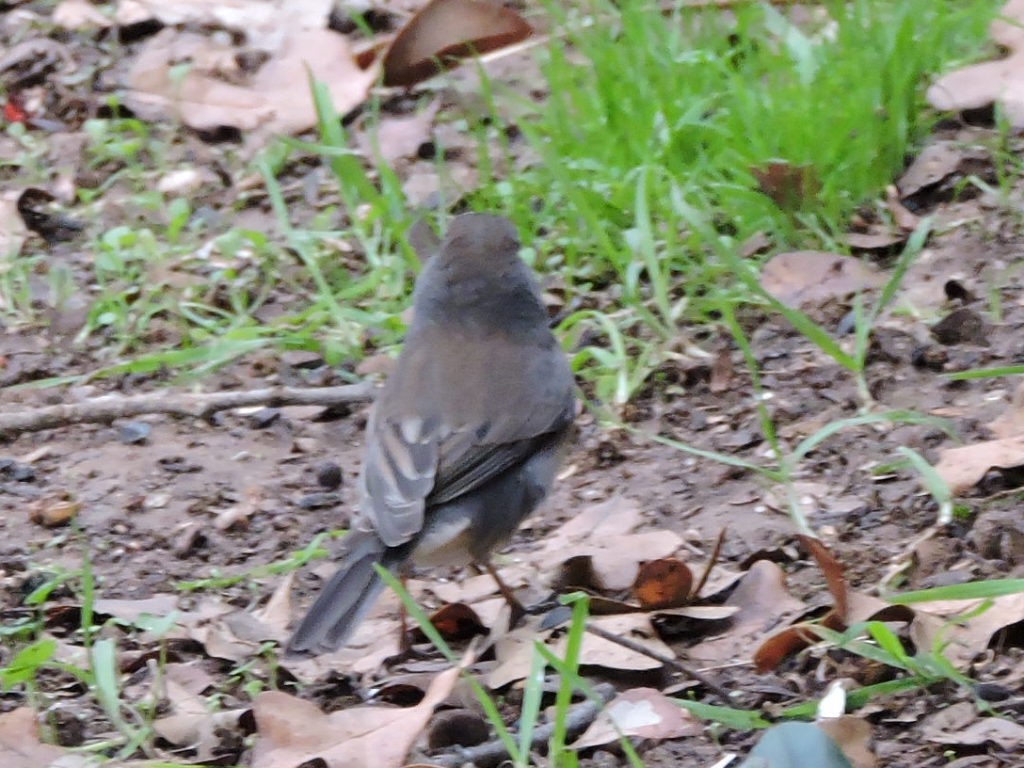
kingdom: Animalia
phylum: Chordata
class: Aves
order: Passeriformes
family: Passerellidae
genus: Junco
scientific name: Junco hyemalis
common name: Dark-eyed junco
